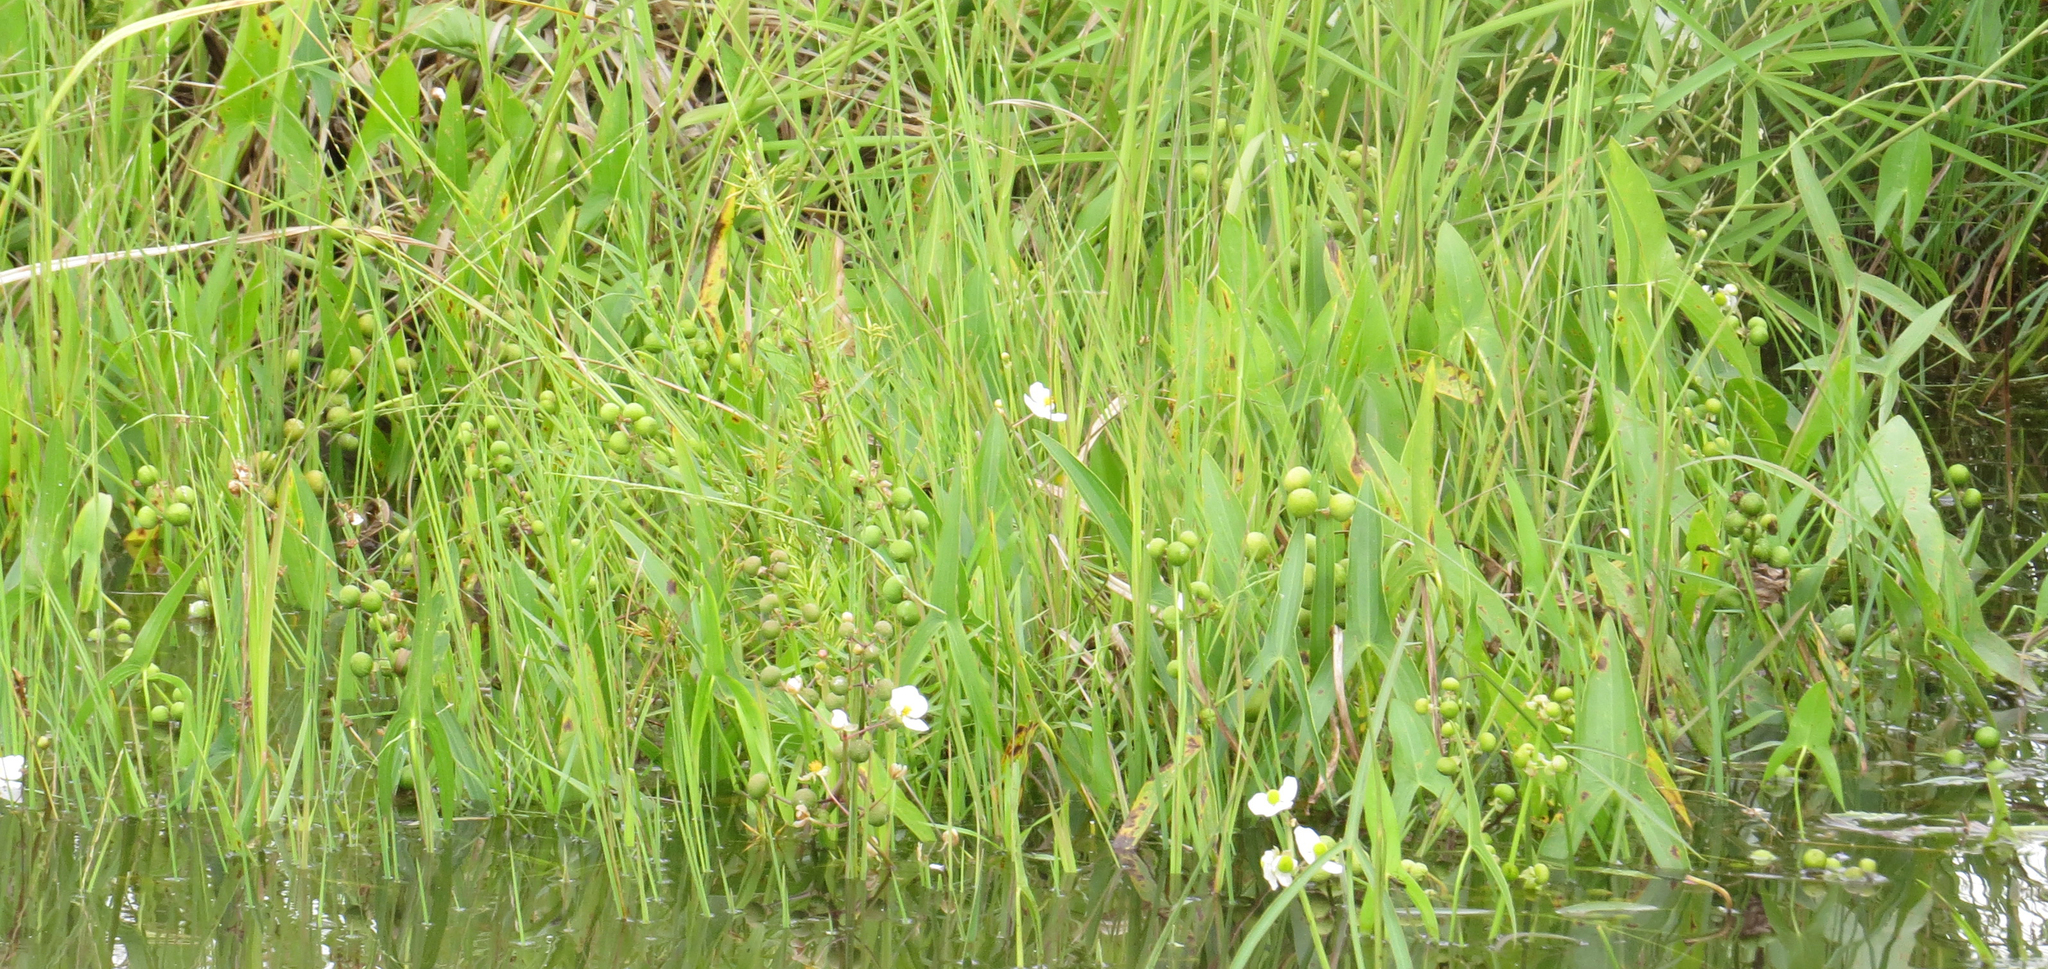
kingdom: Plantae
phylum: Tracheophyta
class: Liliopsida
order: Alismatales
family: Alismataceae
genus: Sagittaria
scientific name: Sagittaria latifolia
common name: Duck-potato
